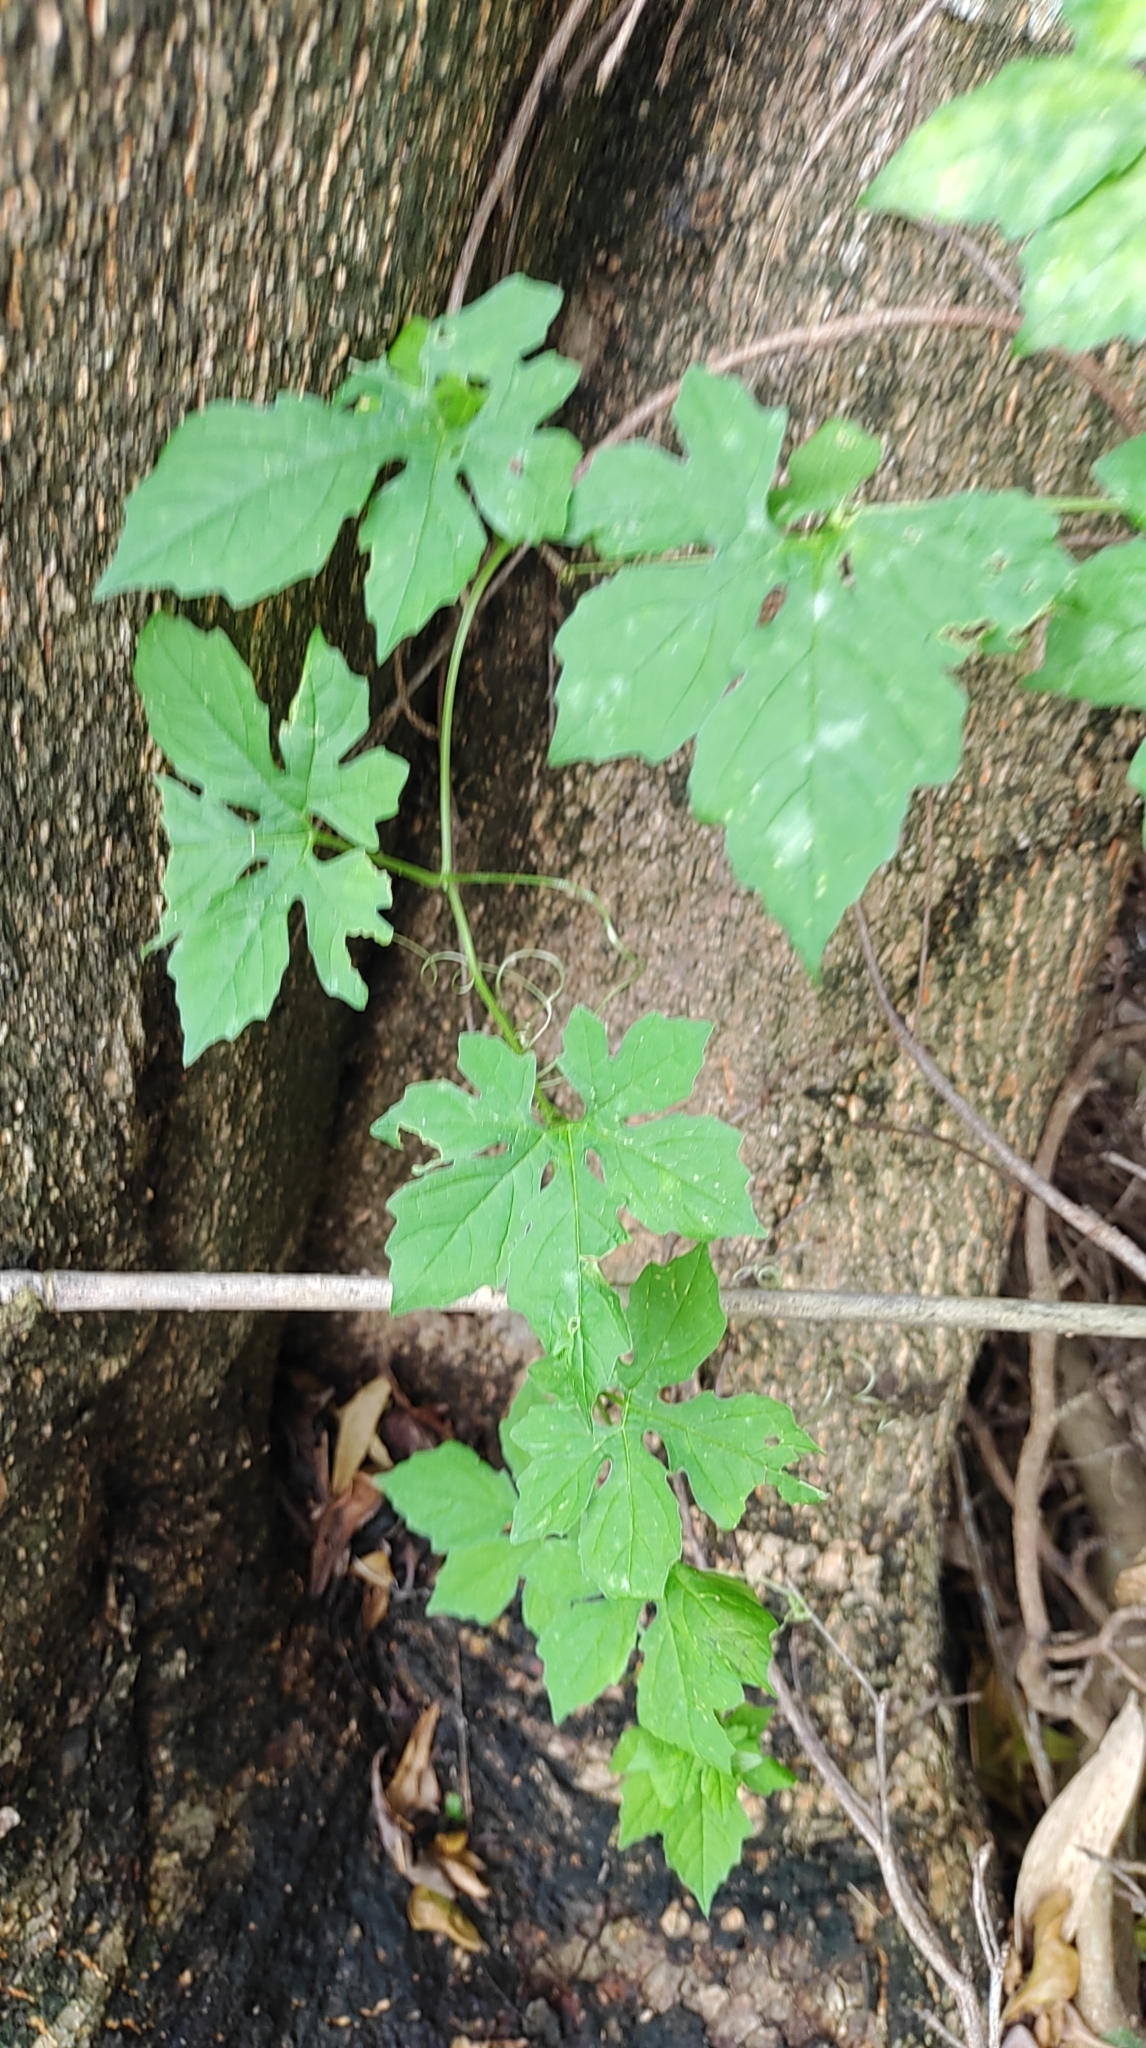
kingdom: Plantae
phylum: Tracheophyta
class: Magnoliopsida
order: Cucurbitales
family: Cucurbitaceae
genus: Momordica
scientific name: Momordica charantia
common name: Balsampear
